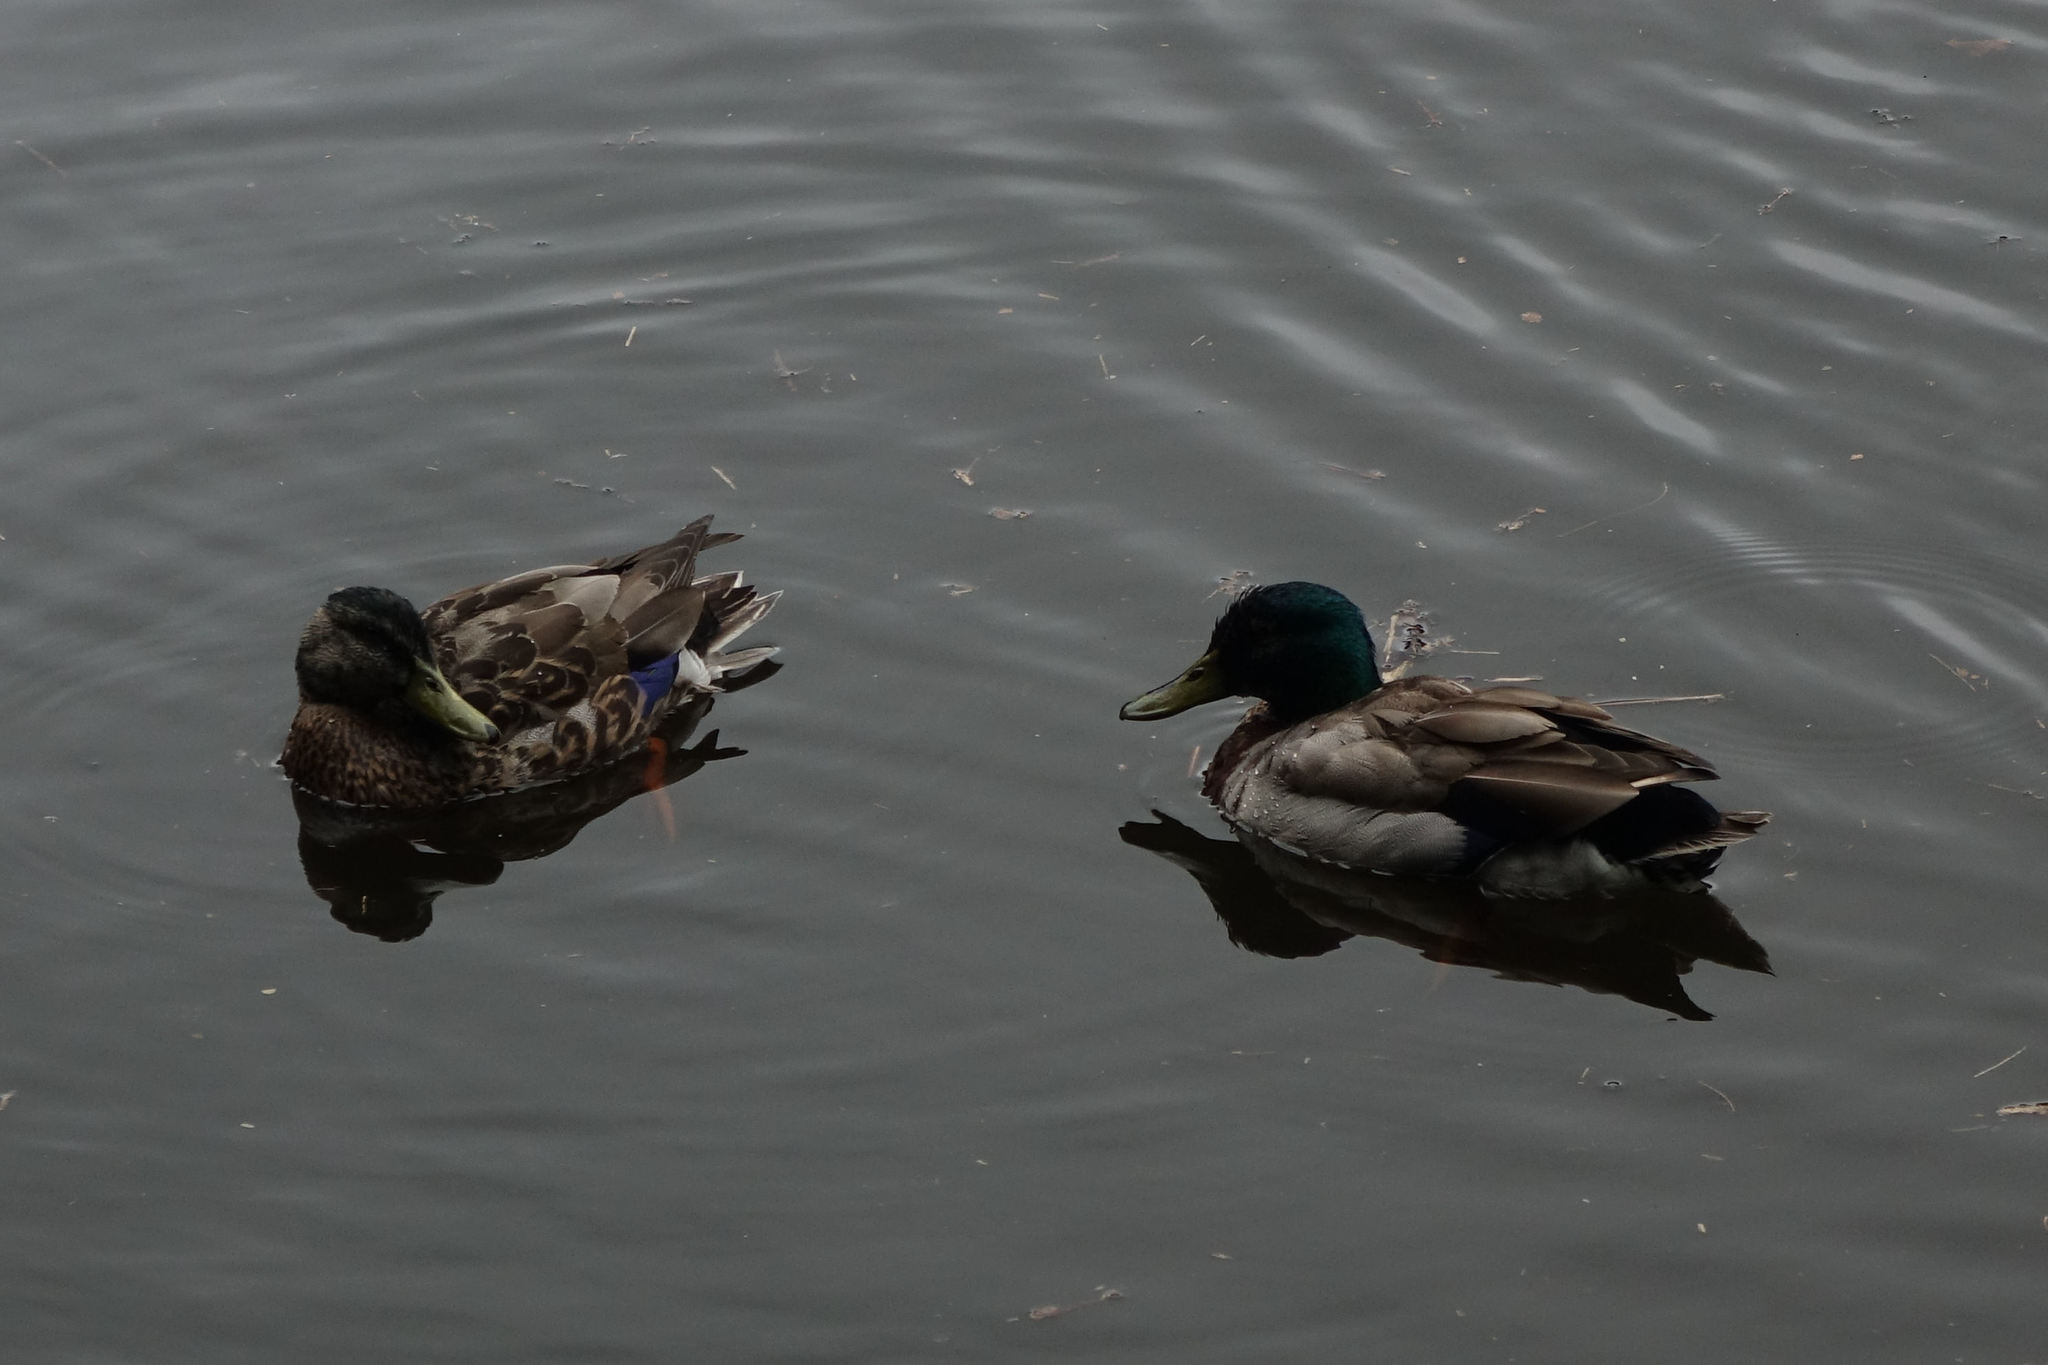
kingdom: Animalia
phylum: Chordata
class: Aves
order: Anseriformes
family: Anatidae
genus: Anas
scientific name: Anas platyrhynchos
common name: Mallard
